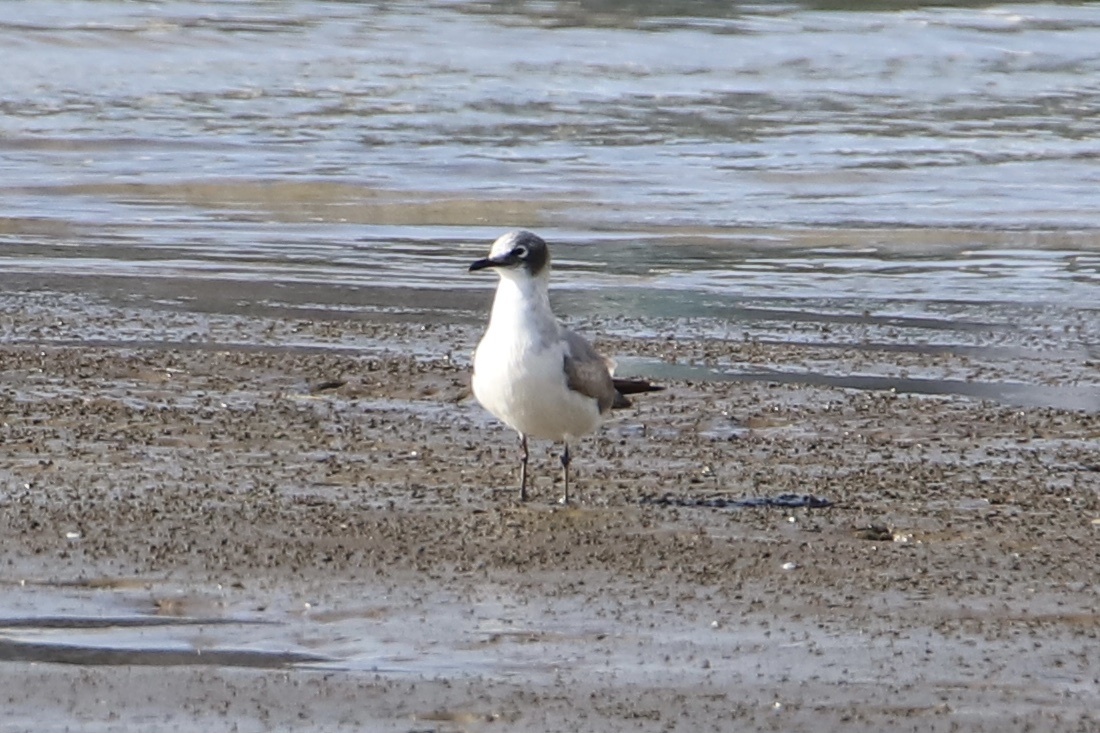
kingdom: Animalia
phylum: Chordata
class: Aves
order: Charadriiformes
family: Laridae
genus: Leucophaeus
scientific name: Leucophaeus pipixcan
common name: Franklin's gull
